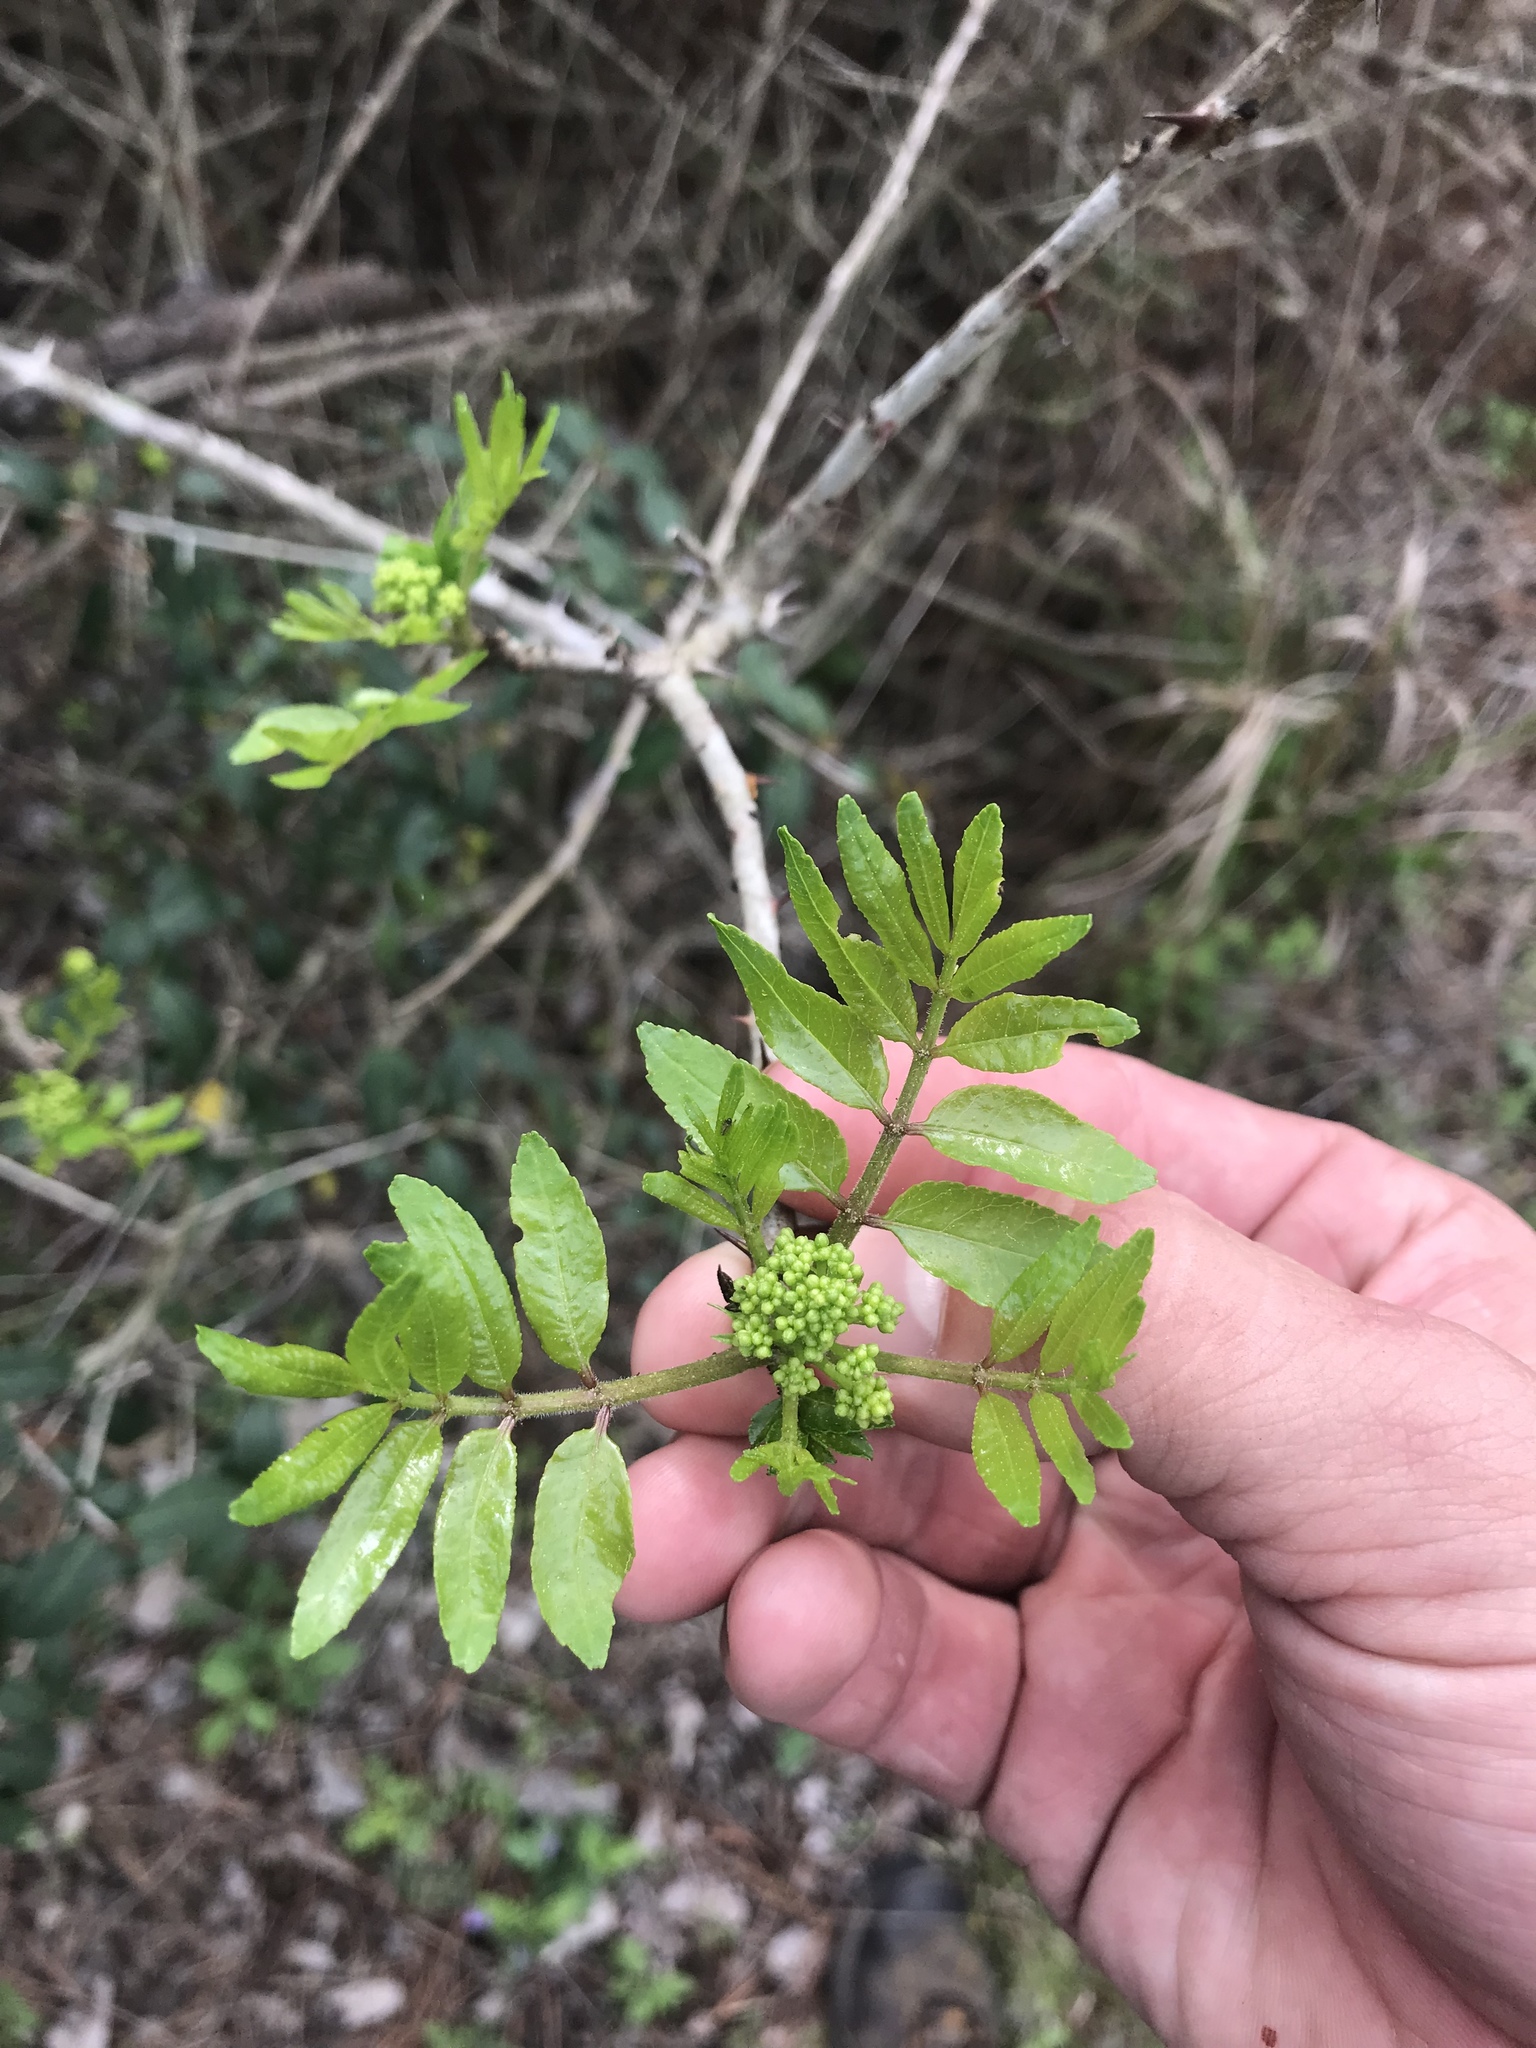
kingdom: Plantae
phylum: Tracheophyta
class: Magnoliopsida
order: Sapindales
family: Rutaceae
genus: Zanthoxylum
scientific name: Zanthoxylum clava-herculis
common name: Hercules'-club
